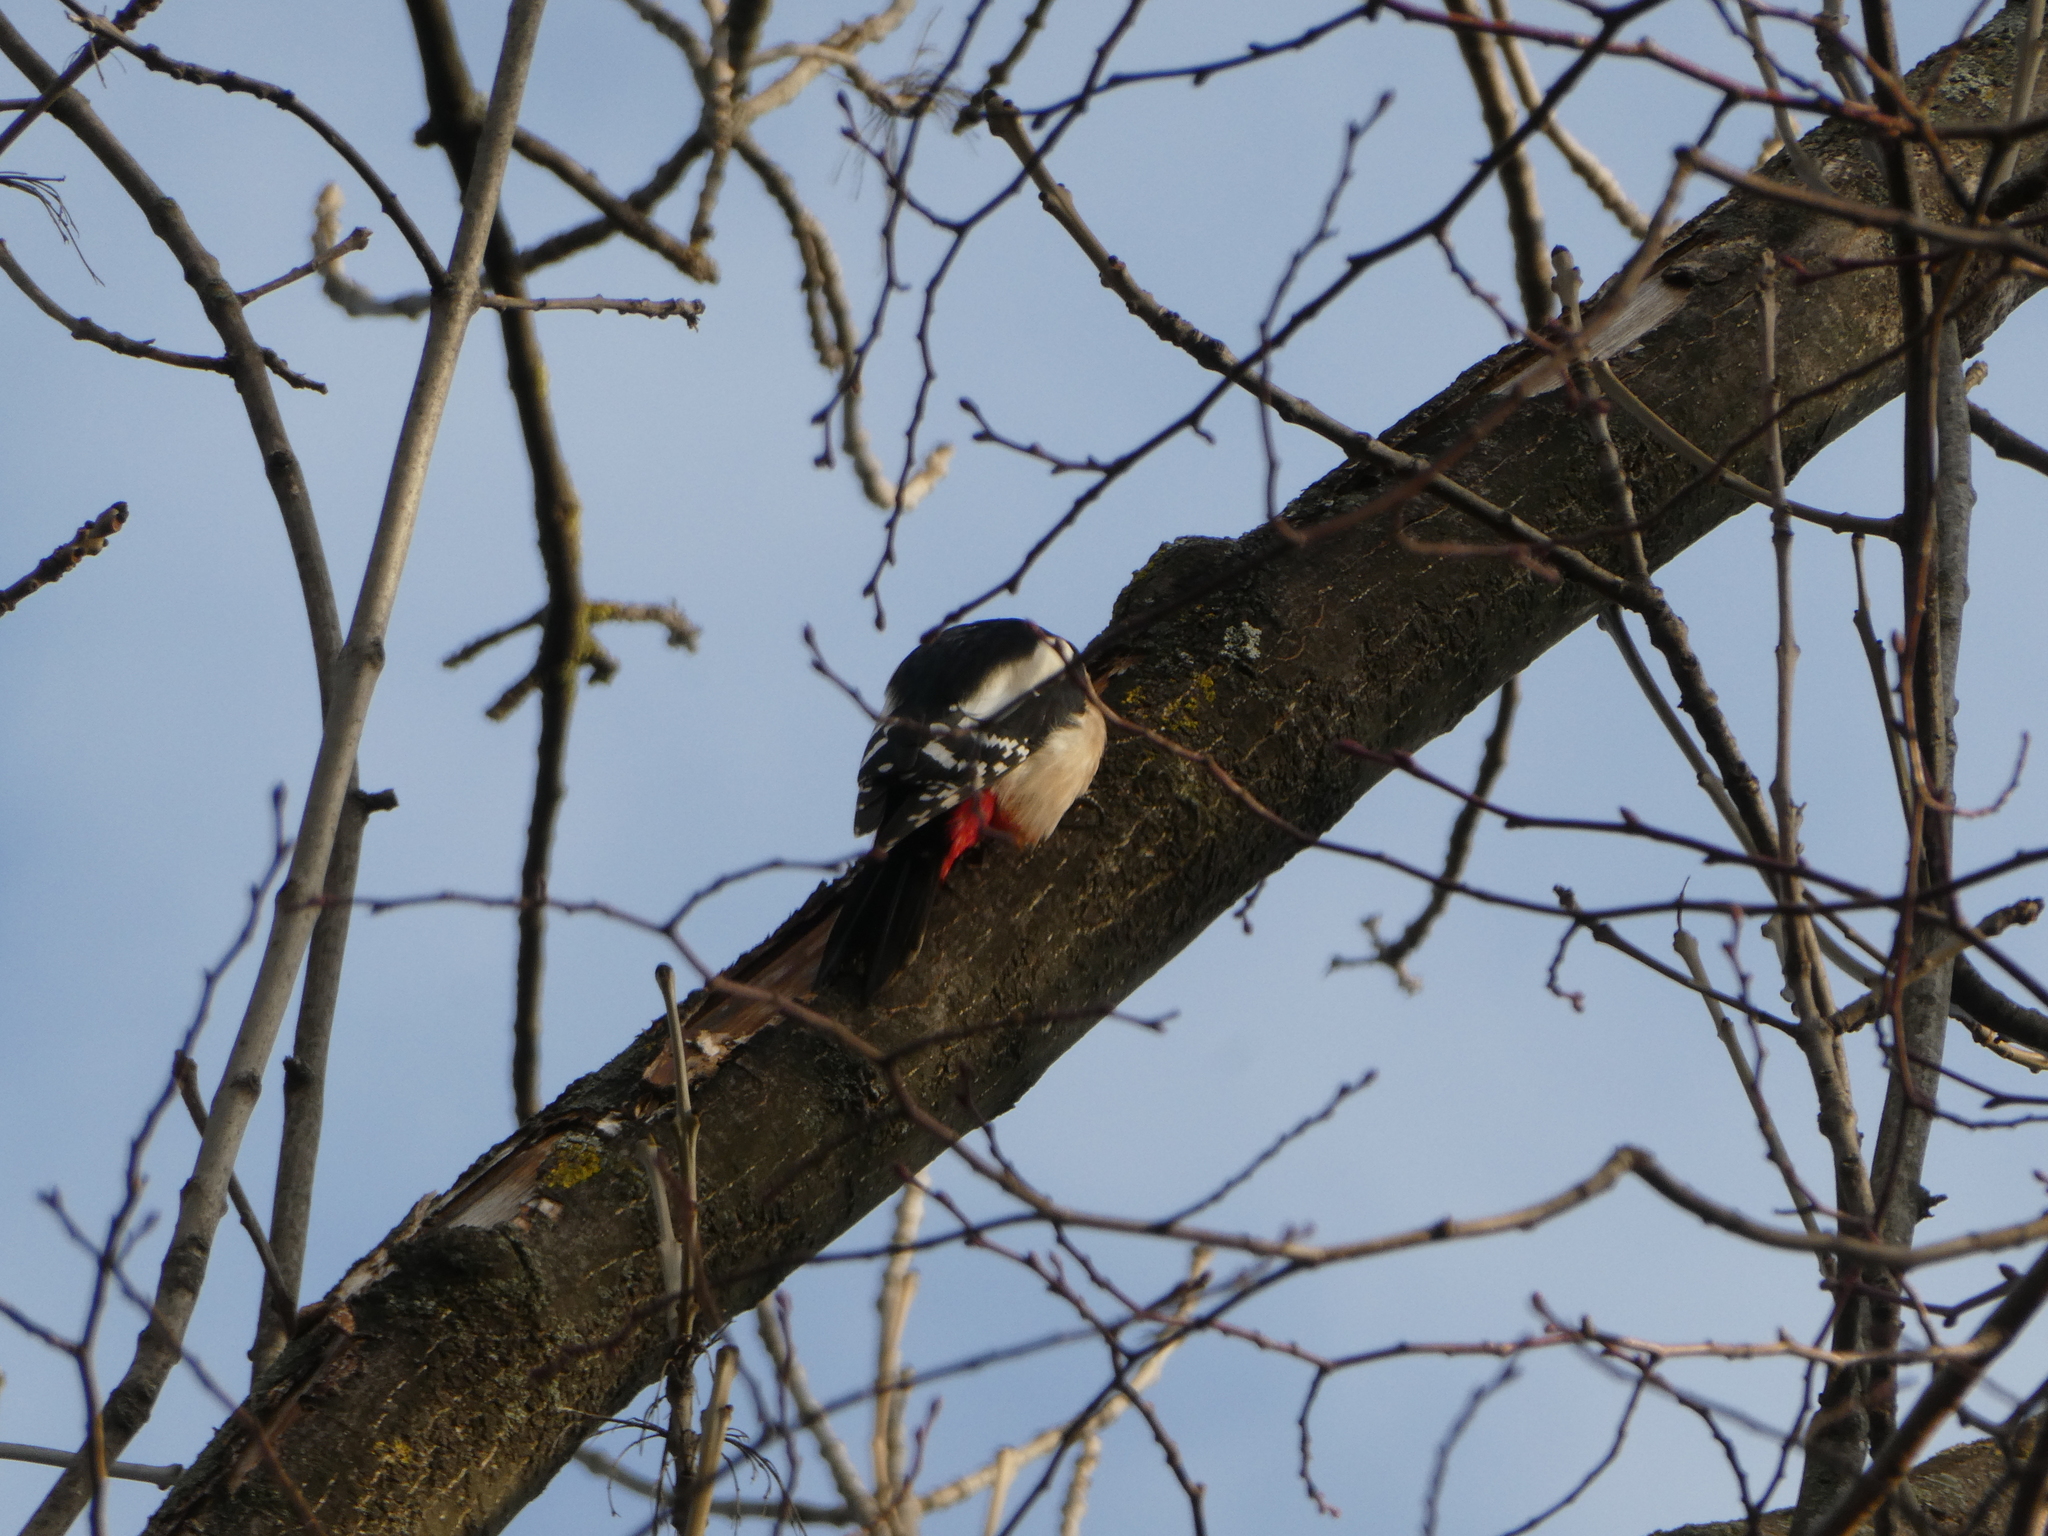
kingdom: Animalia
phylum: Chordata
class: Aves
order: Piciformes
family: Picidae
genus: Dendrocopos
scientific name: Dendrocopos major
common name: Great spotted woodpecker
